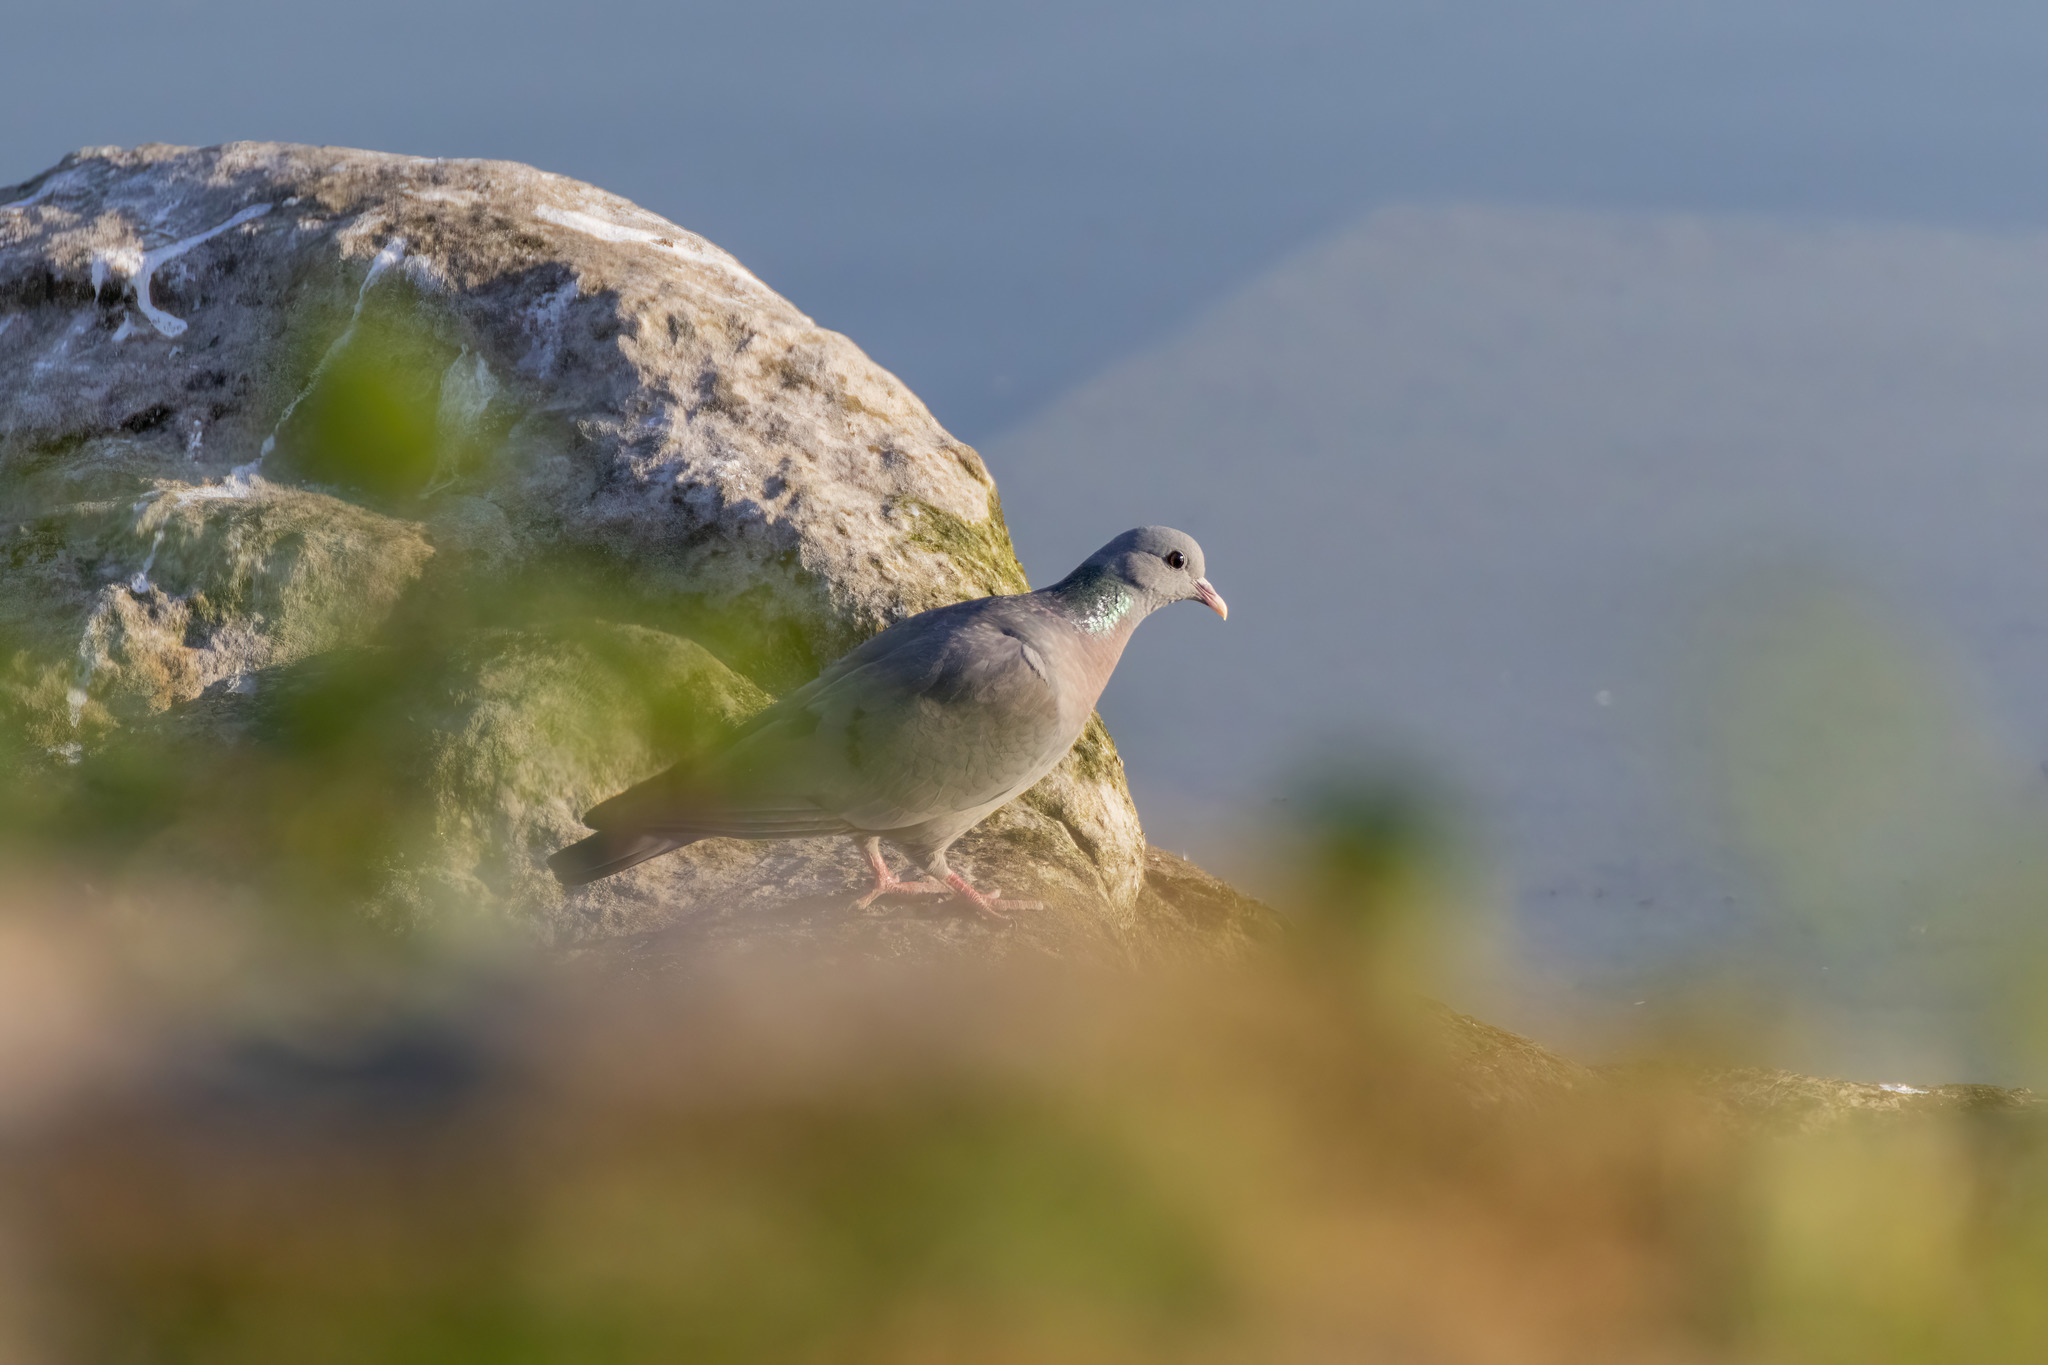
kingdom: Animalia
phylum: Chordata
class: Aves
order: Columbiformes
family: Columbidae
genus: Columba
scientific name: Columba oenas
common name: Stock dove
